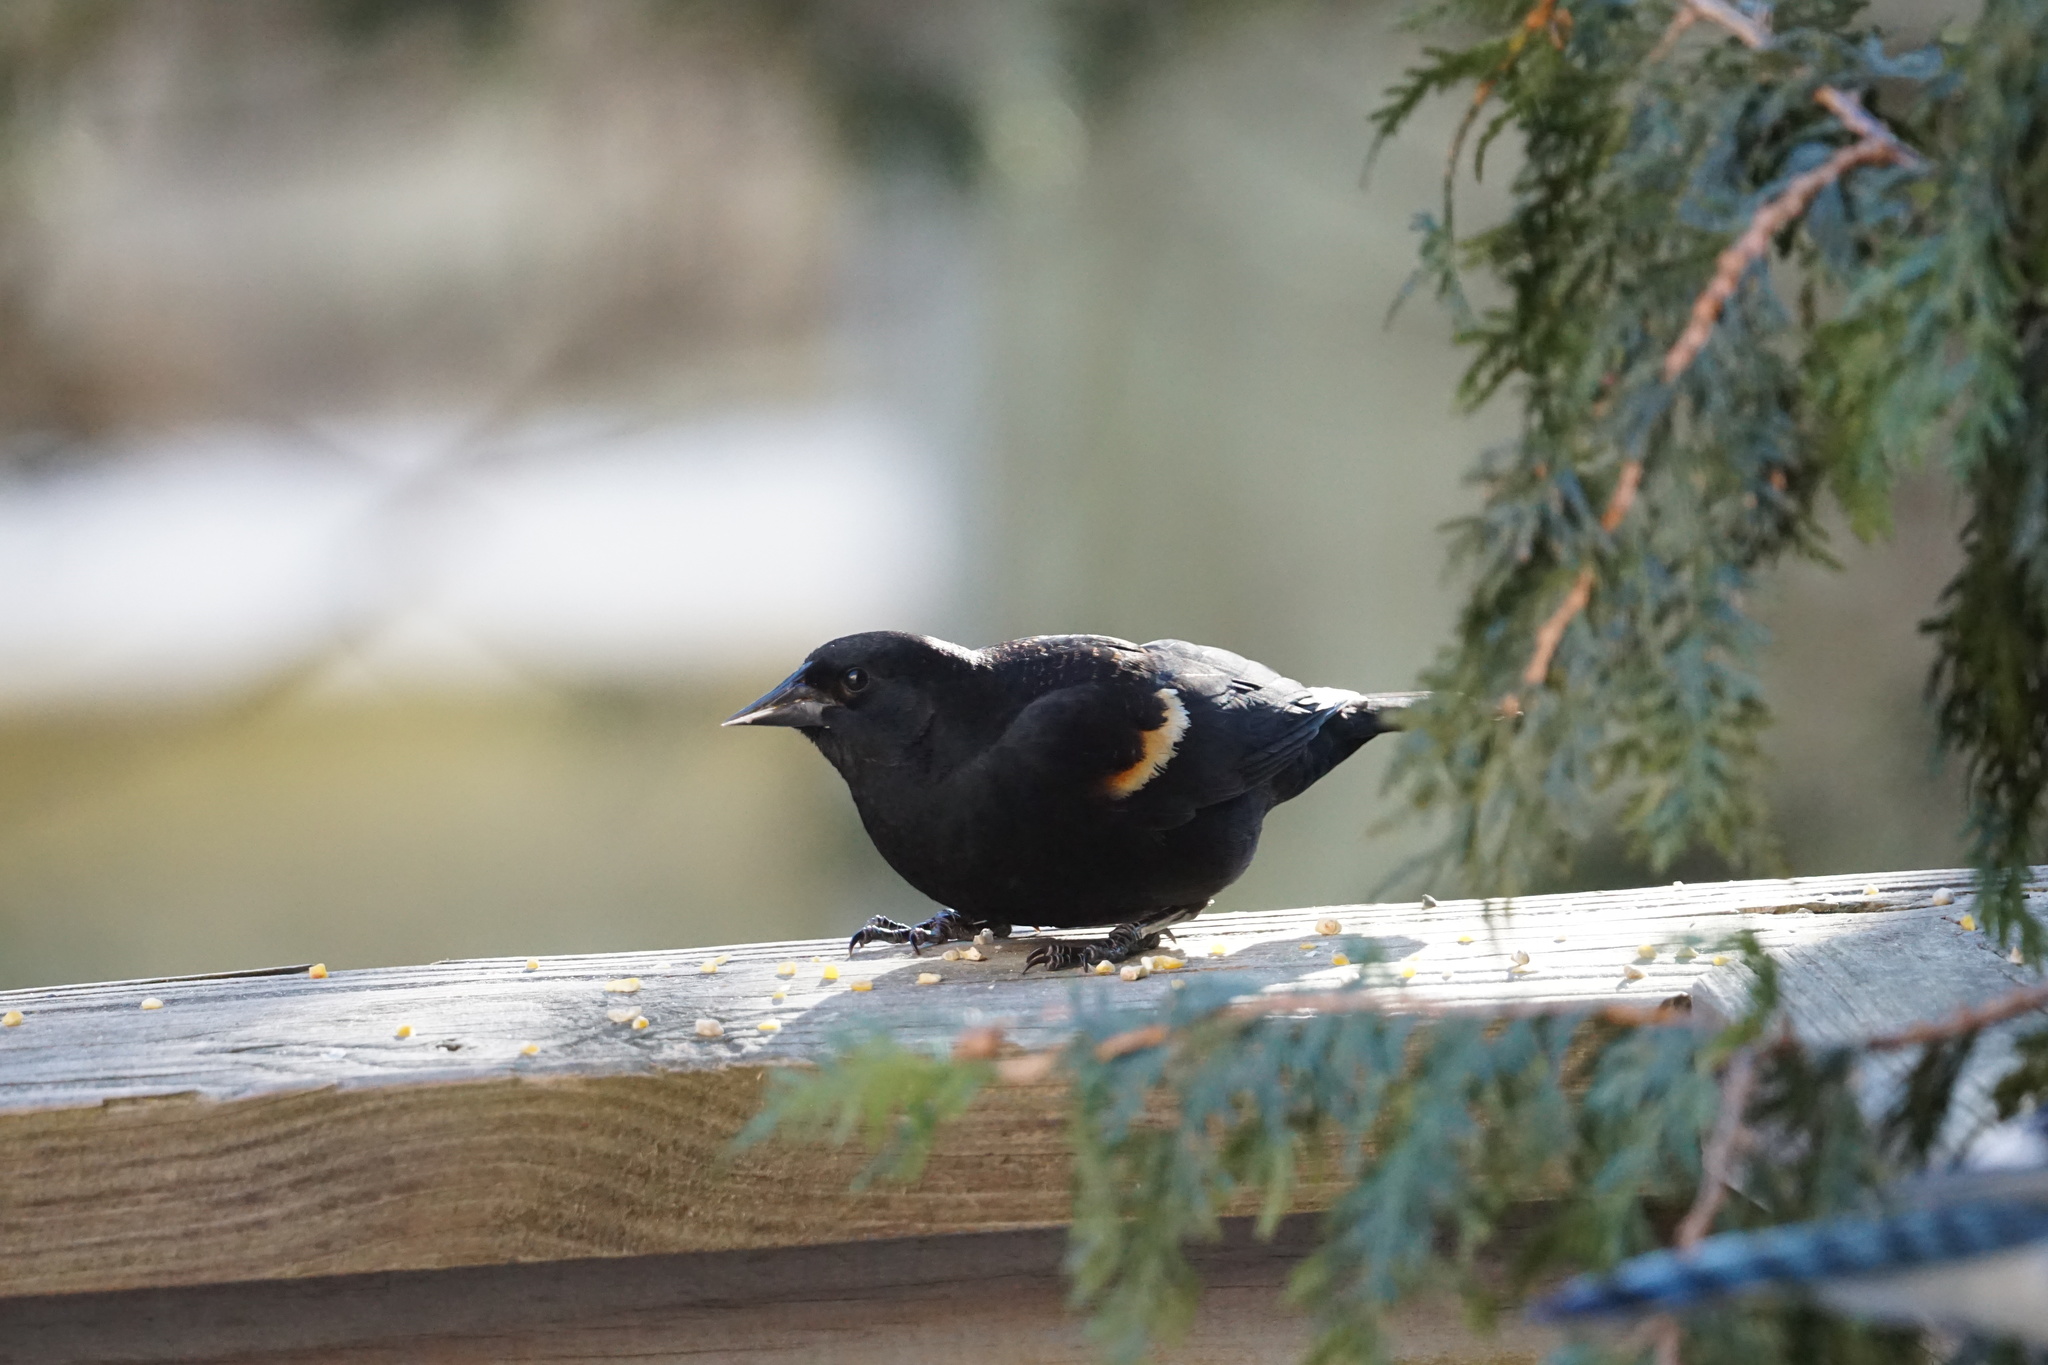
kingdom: Animalia
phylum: Chordata
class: Aves
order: Passeriformes
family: Icteridae
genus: Agelaius
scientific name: Agelaius phoeniceus
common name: Red-winged blackbird
